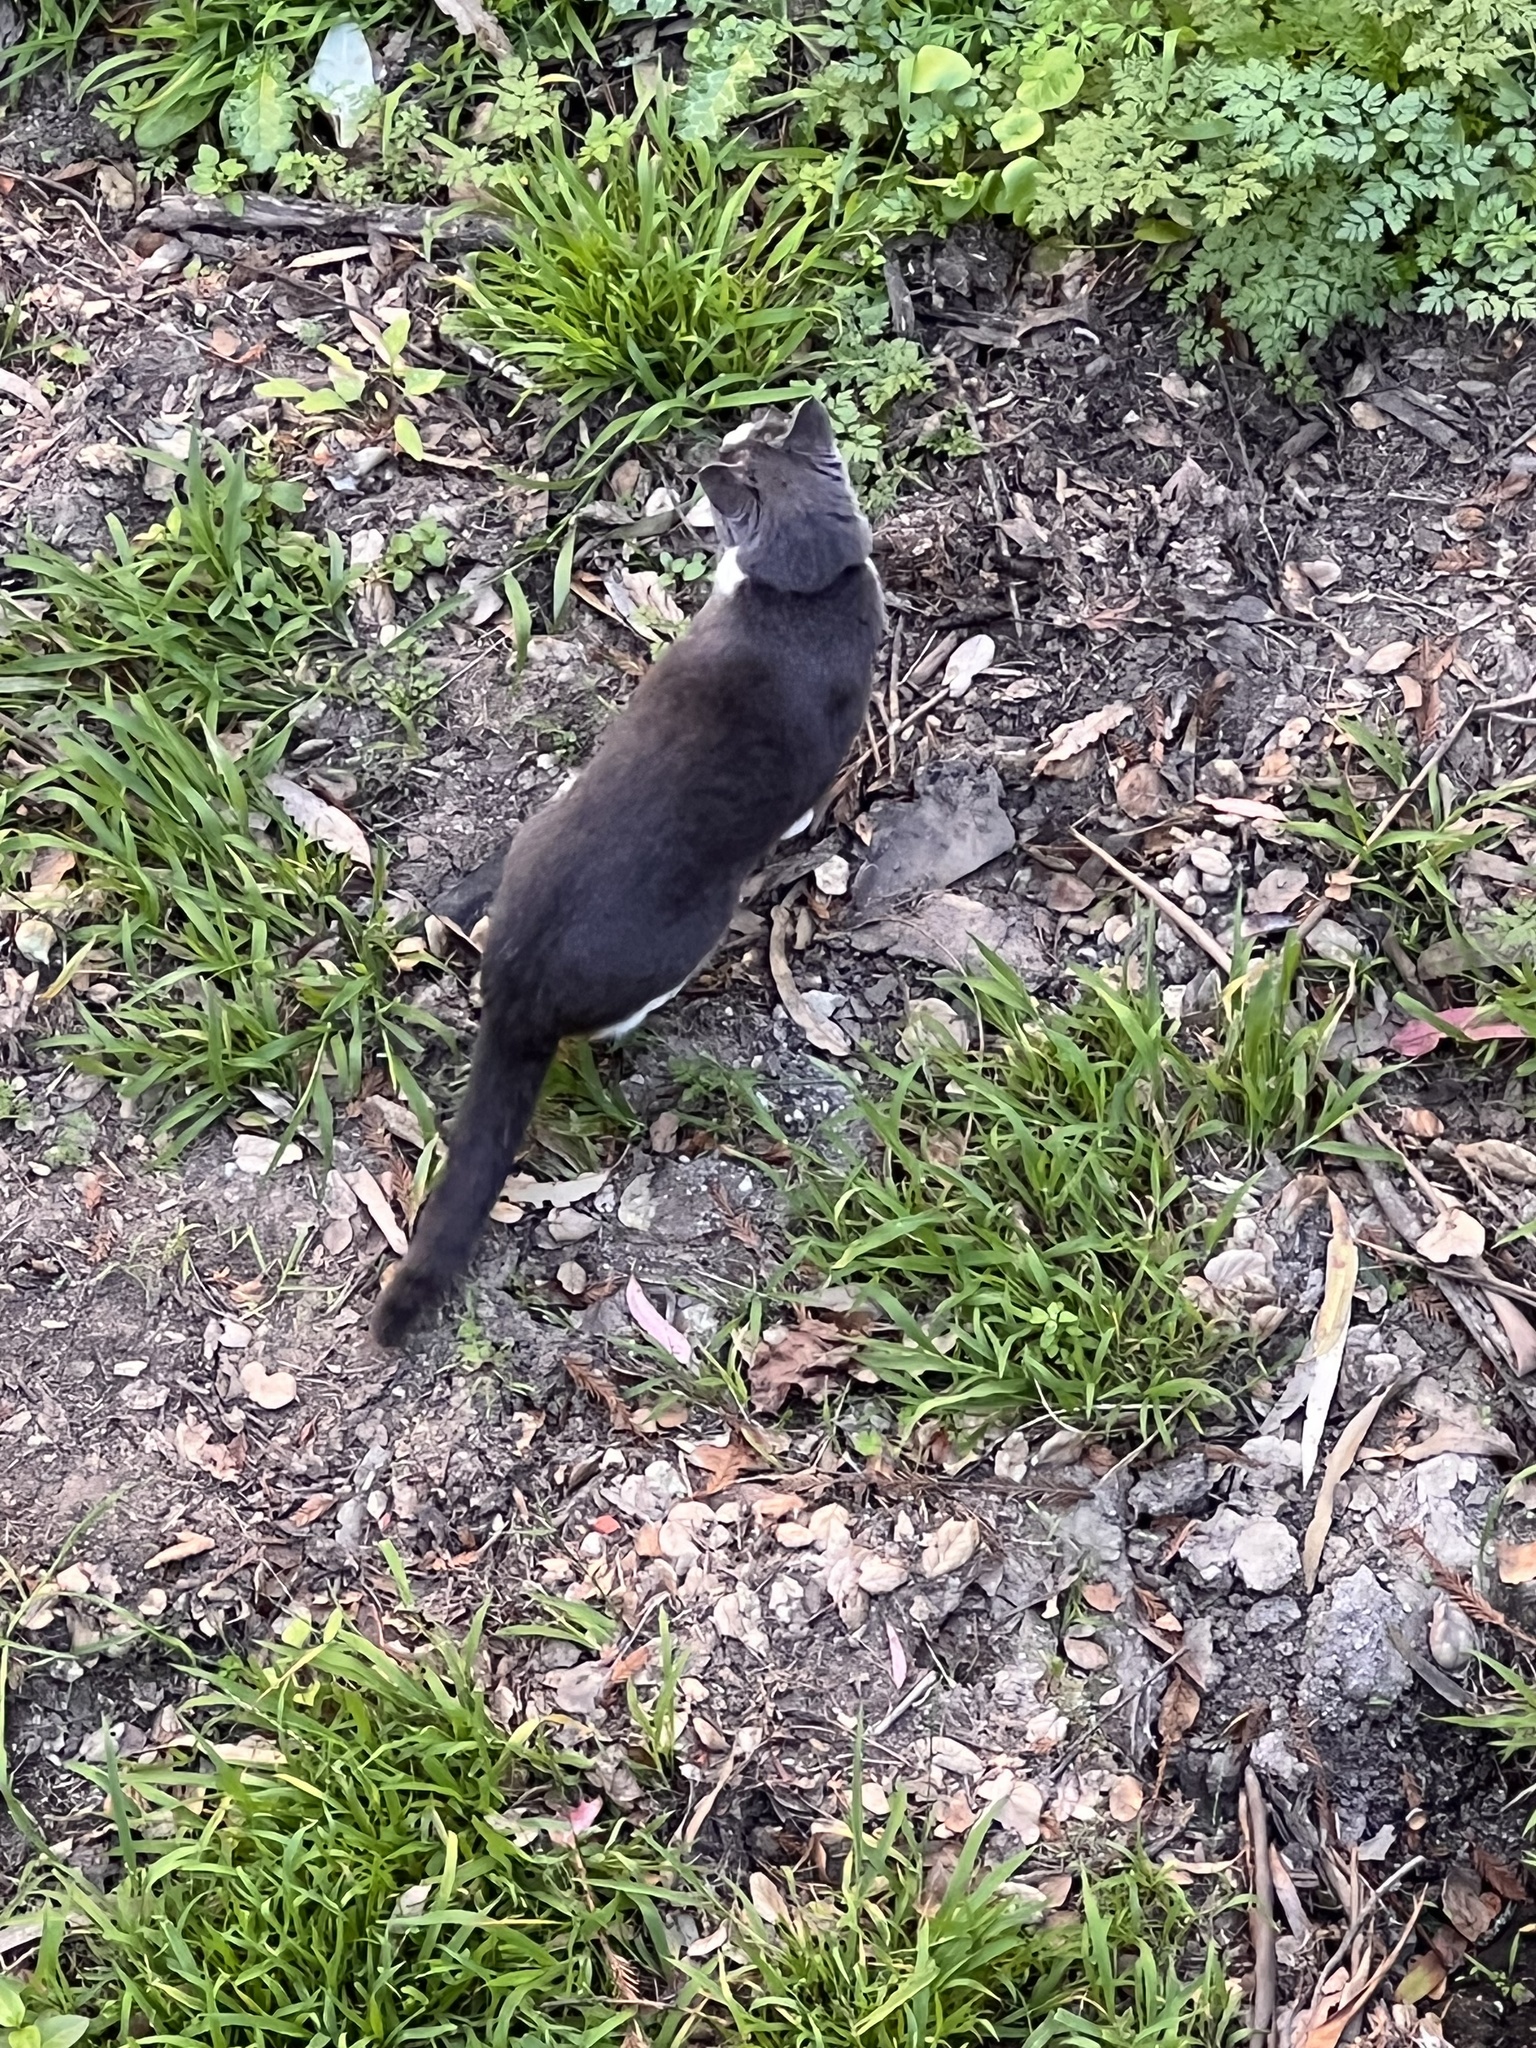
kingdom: Animalia
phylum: Chordata
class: Mammalia
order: Carnivora
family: Felidae
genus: Felis
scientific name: Felis catus
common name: Domestic cat
